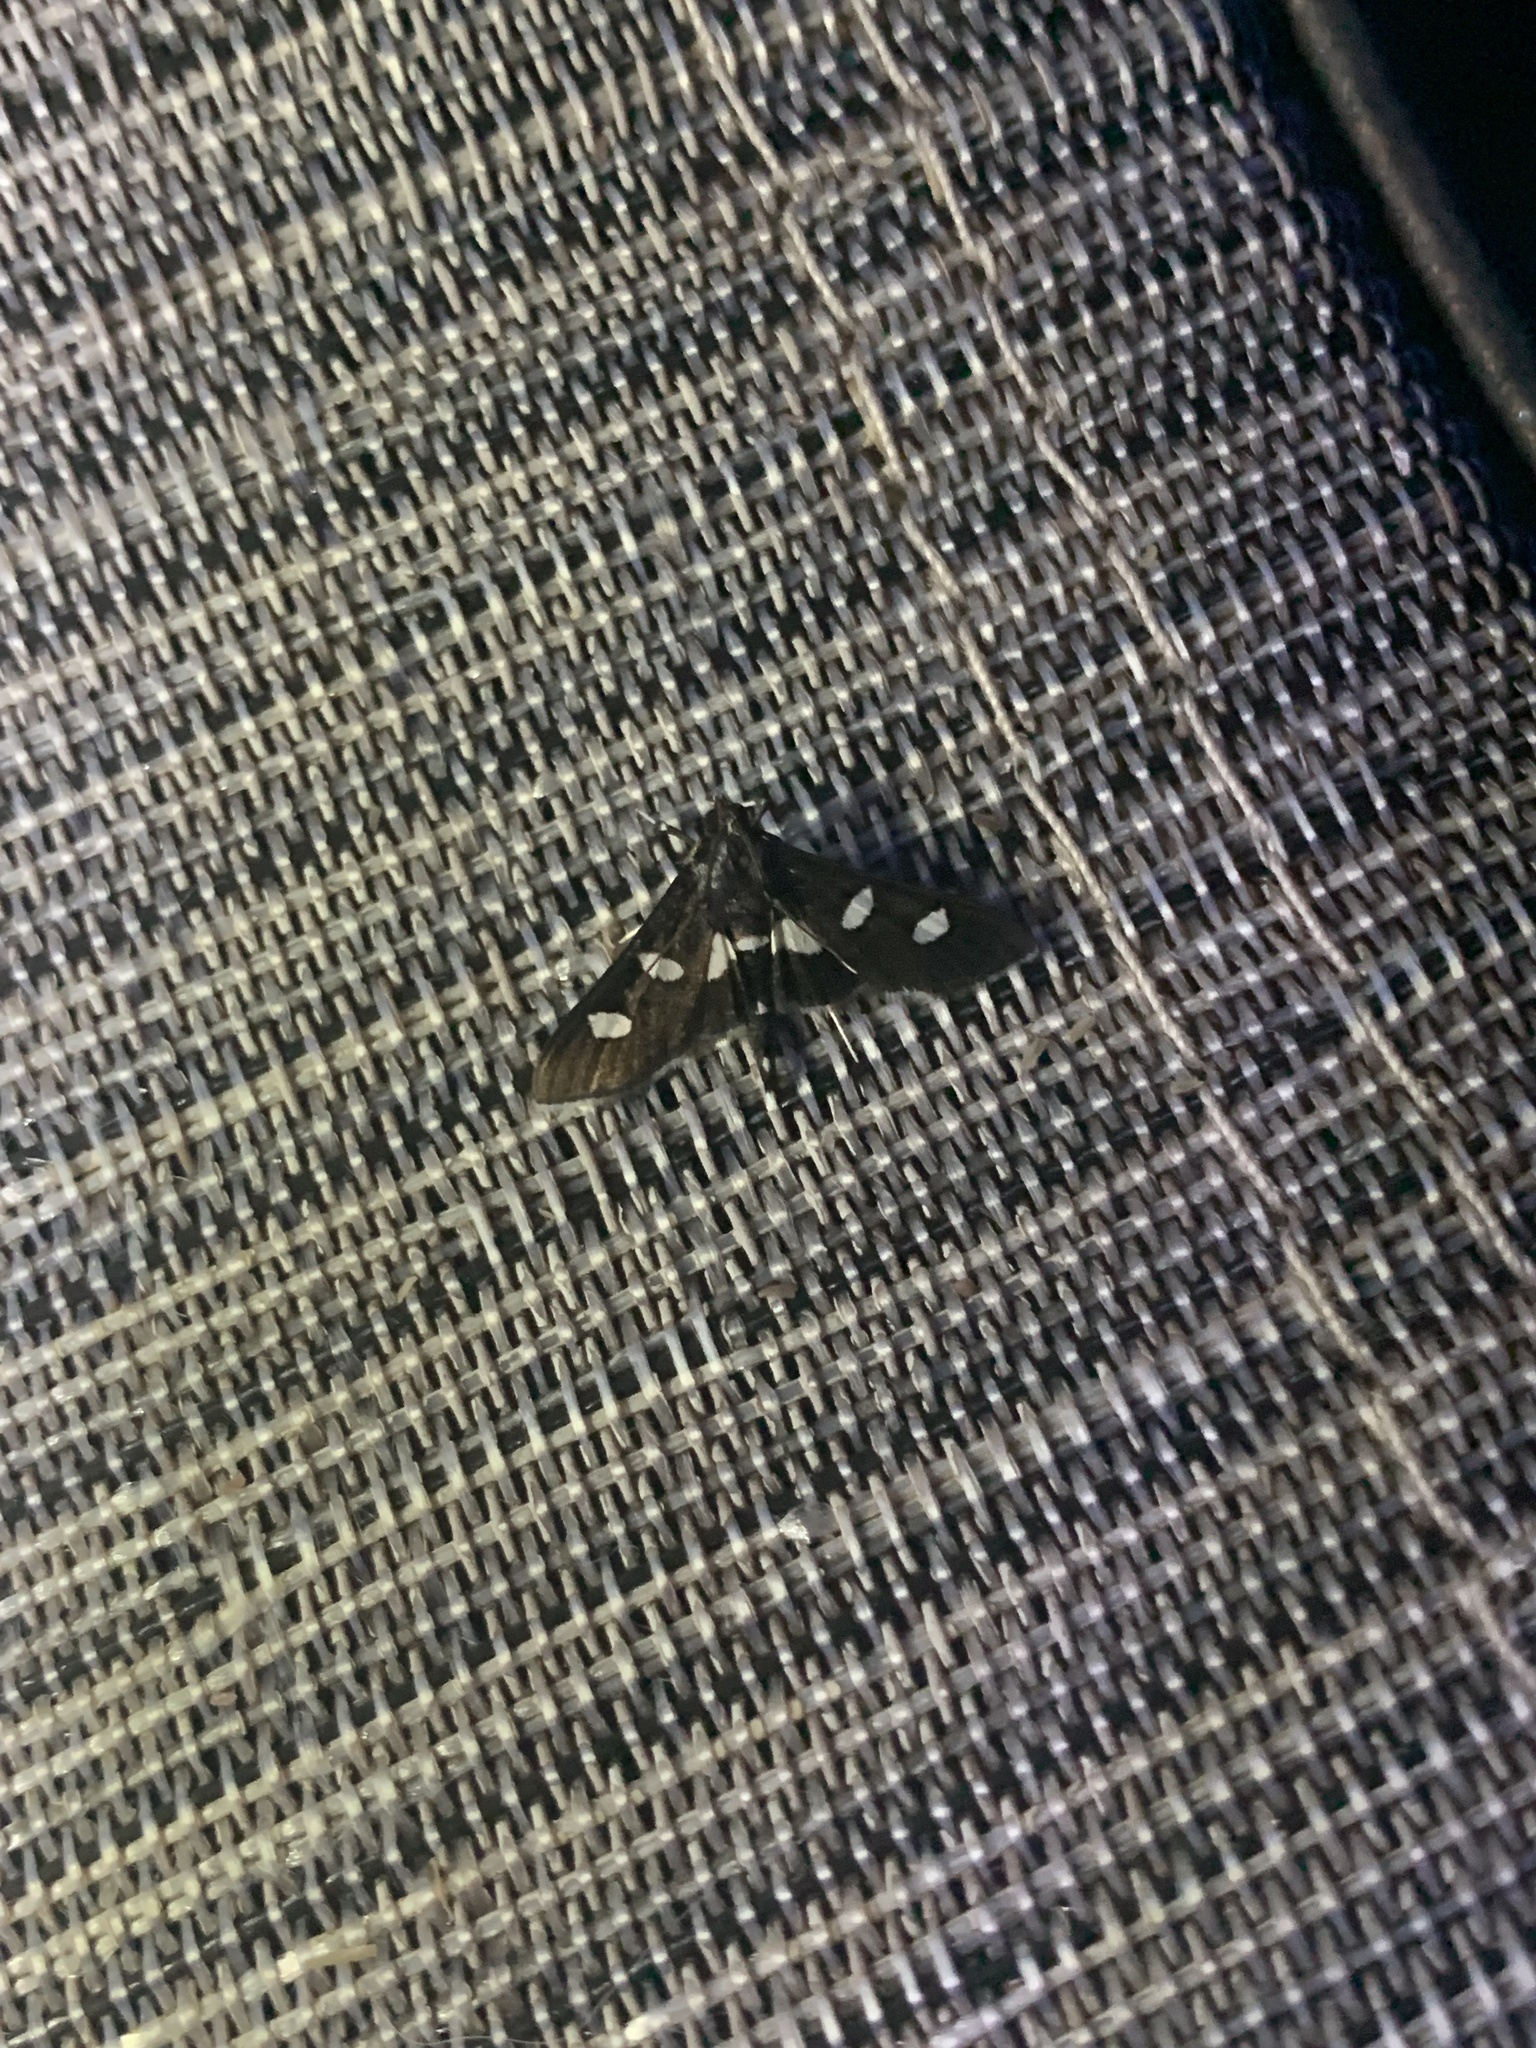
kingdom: Animalia
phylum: Arthropoda
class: Insecta
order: Lepidoptera
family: Crambidae
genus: Desmia
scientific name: Desmia
